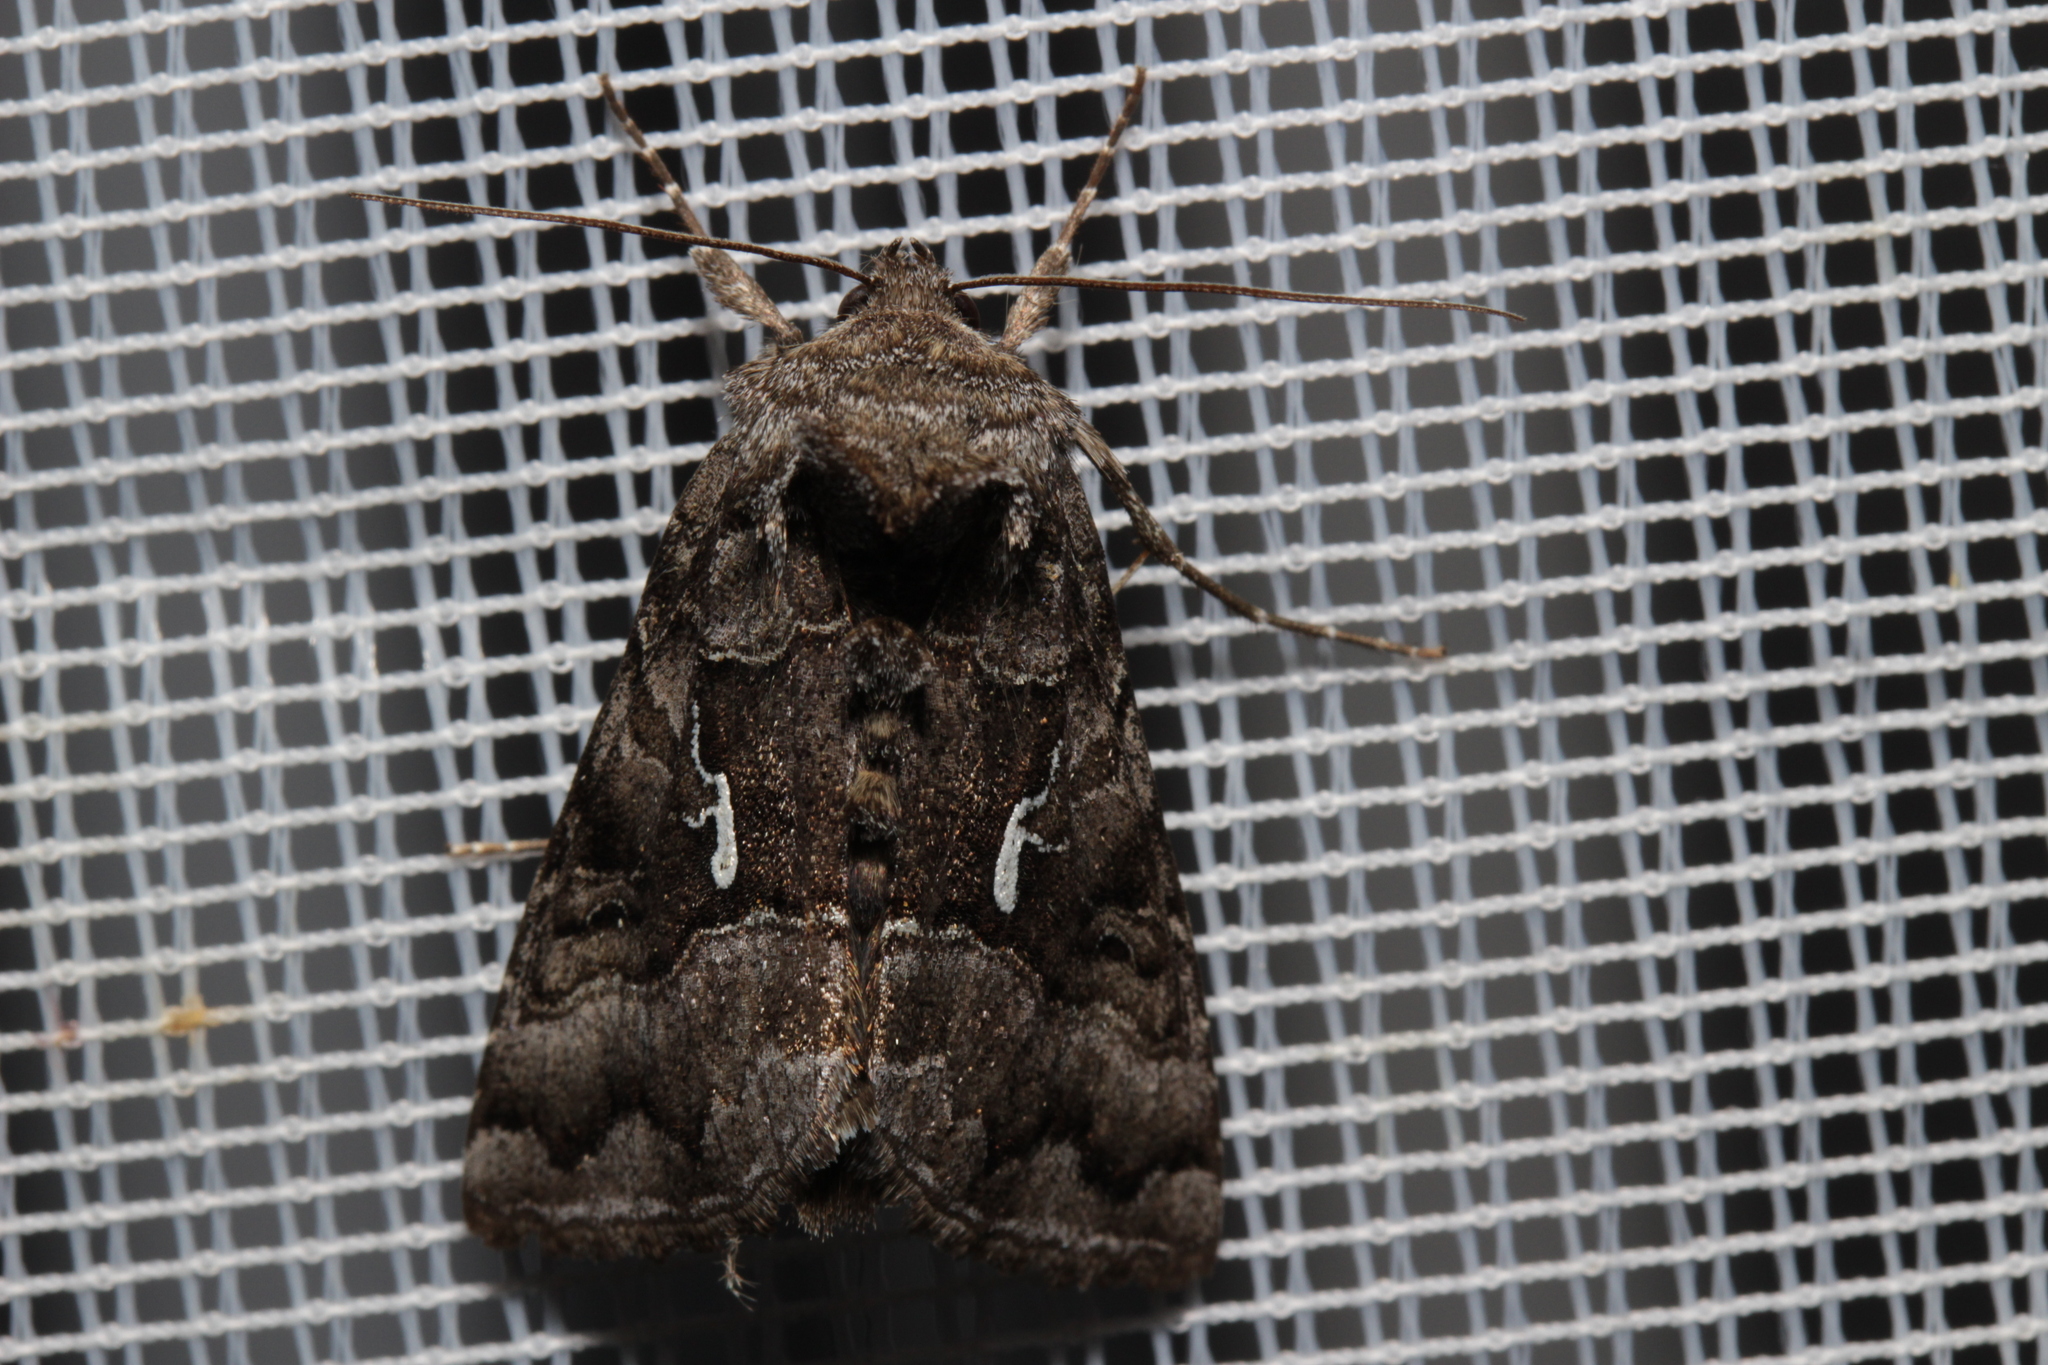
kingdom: Animalia
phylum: Arthropoda
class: Insecta
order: Lepidoptera
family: Noctuidae
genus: Syngrapha
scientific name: Syngrapha ain
